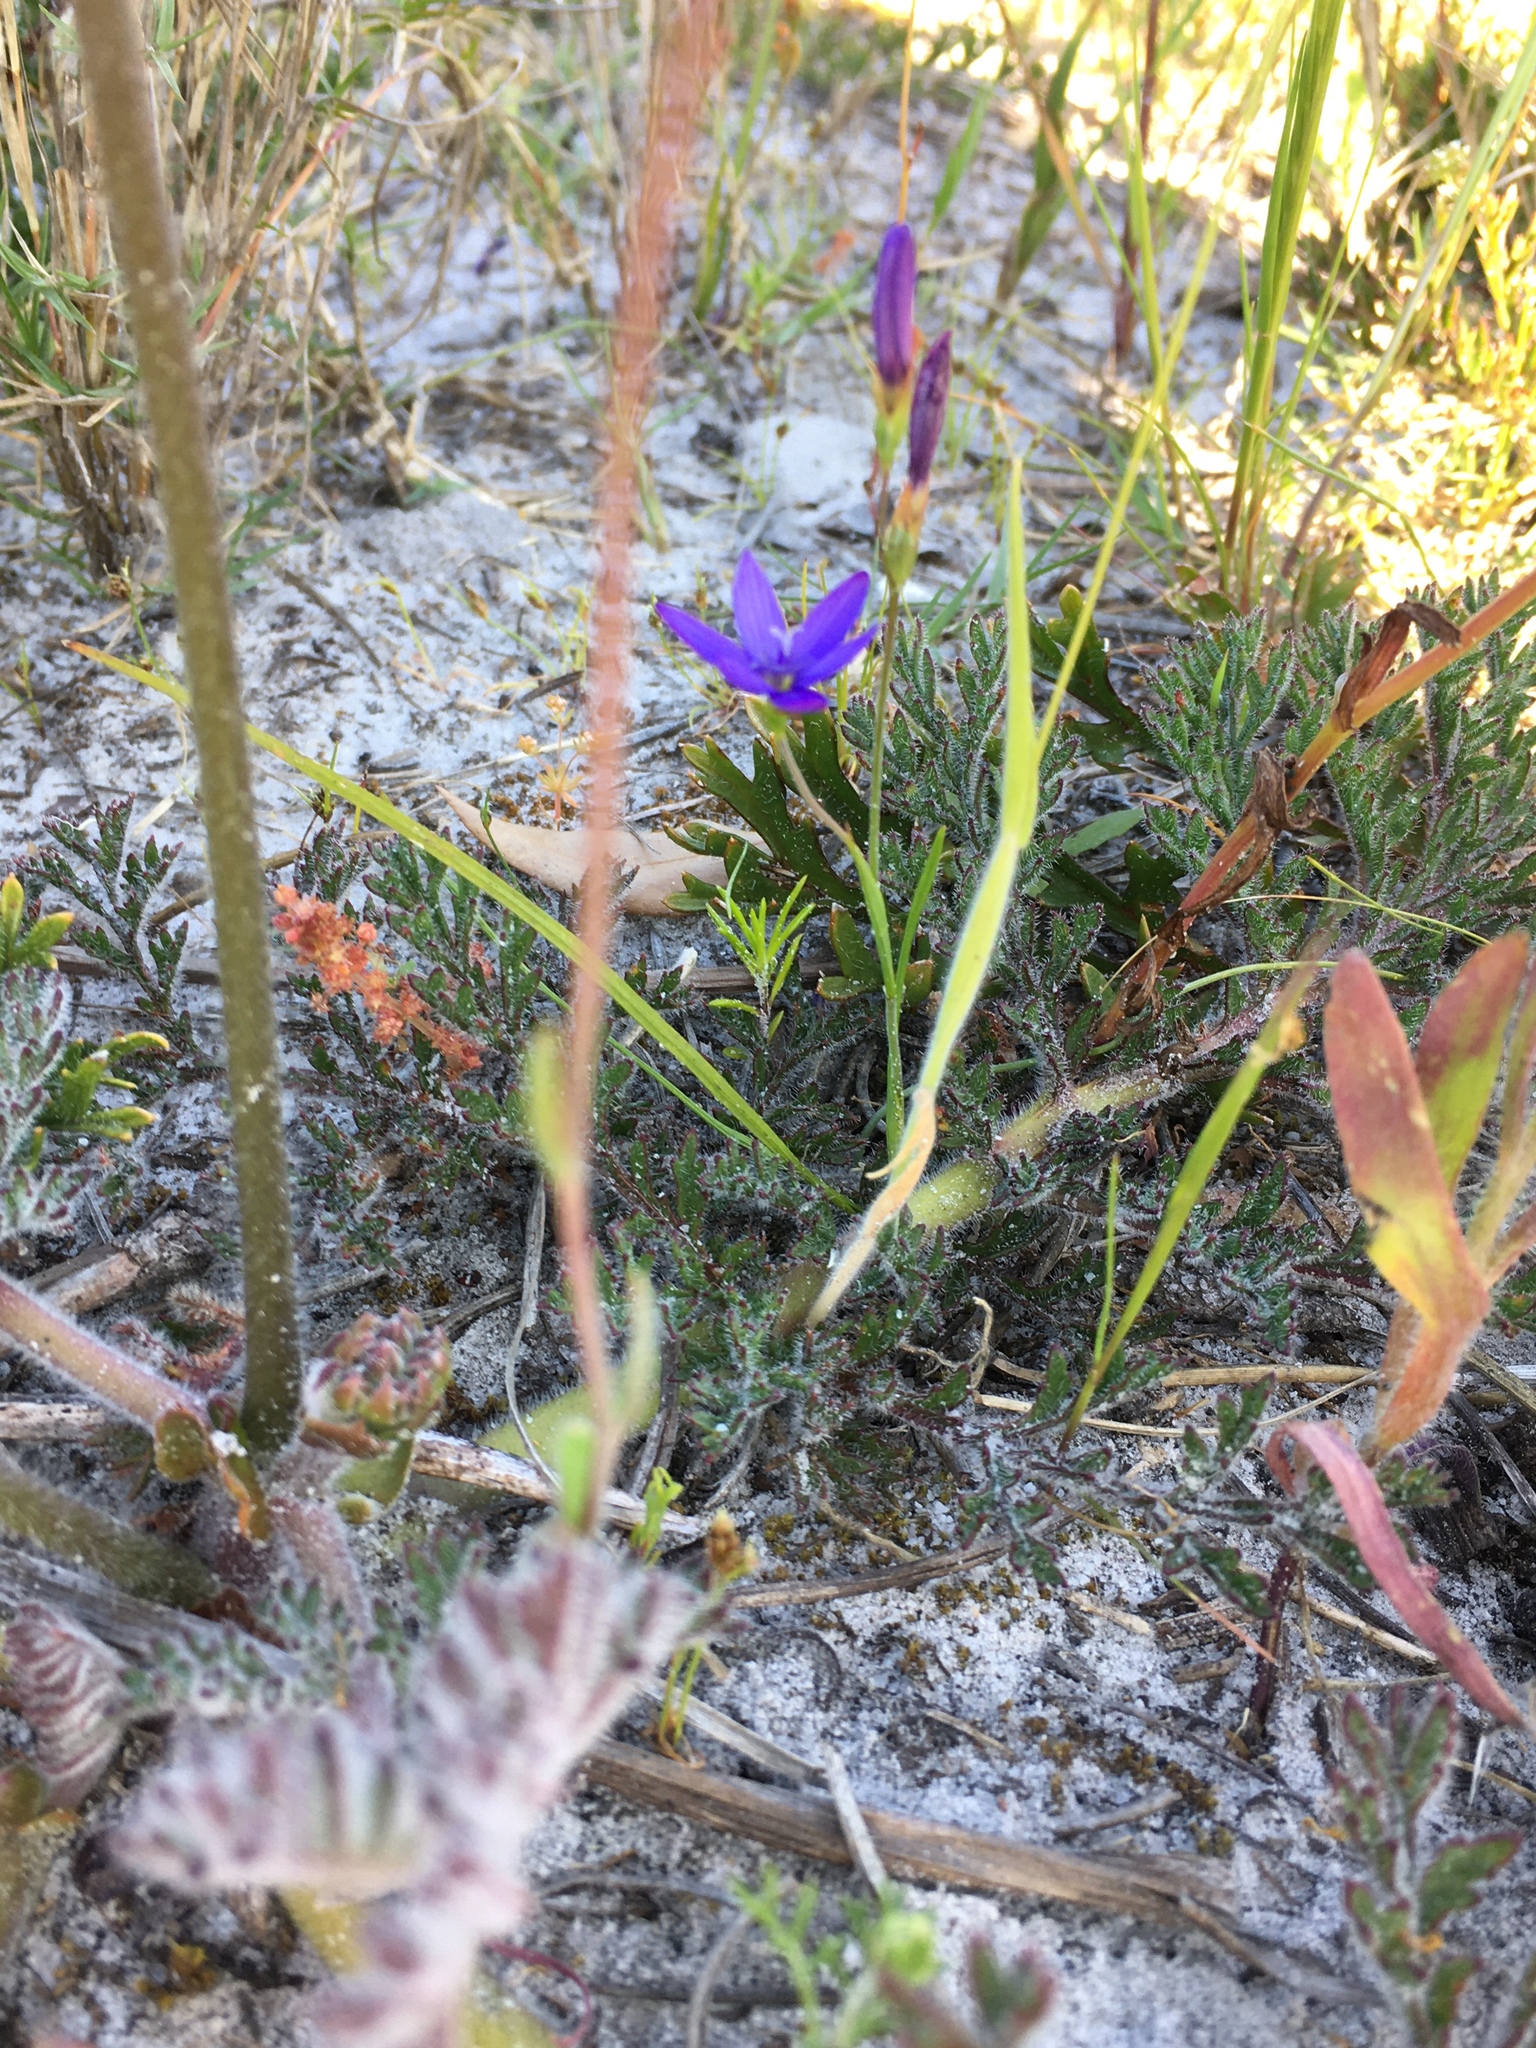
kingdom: Plantae
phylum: Tracheophyta
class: Liliopsida
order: Asparagales
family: Iridaceae
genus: Geissorhiza
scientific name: Geissorhiza aspera
